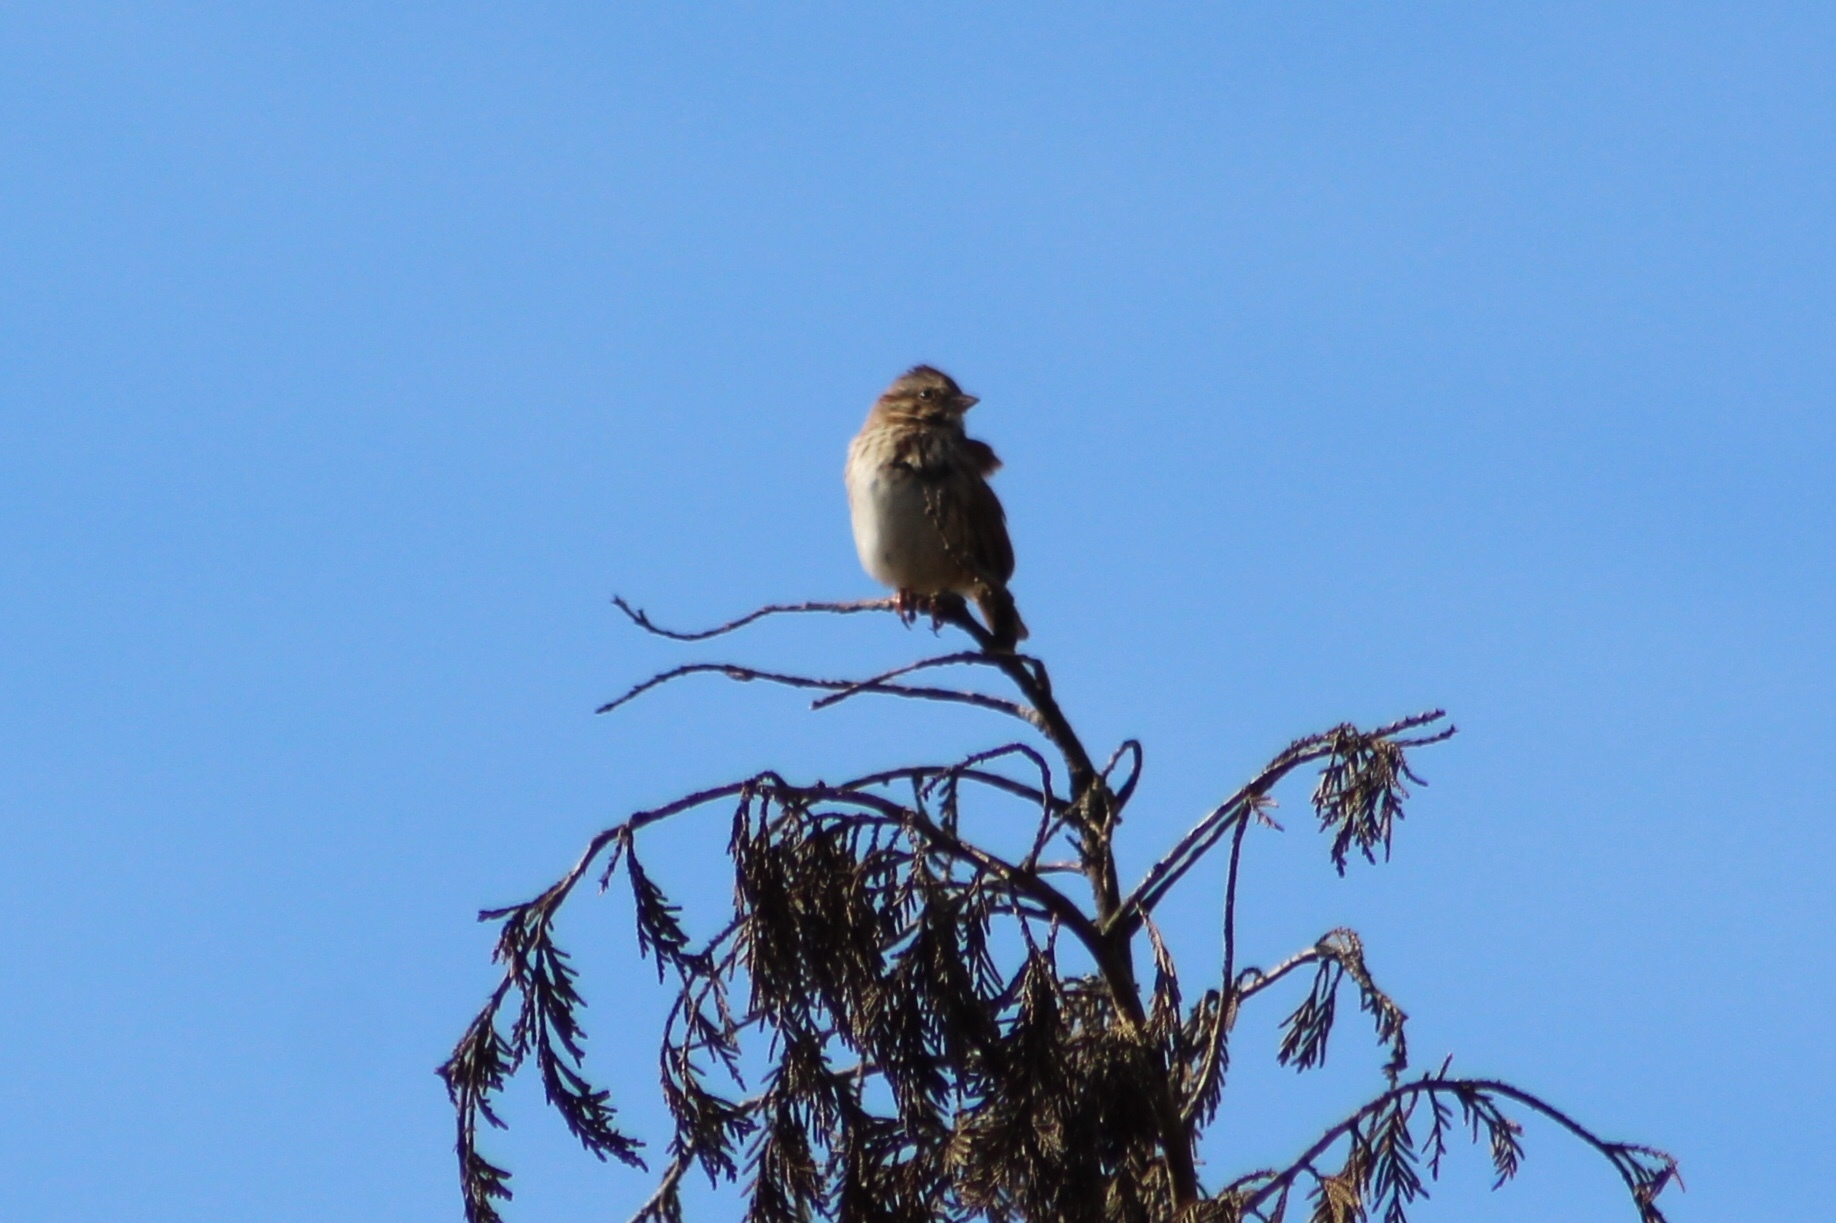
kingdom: Animalia
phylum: Chordata
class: Aves
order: Passeriformes
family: Passerellidae
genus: Melospiza
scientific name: Melospiza melodia
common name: Song sparrow
